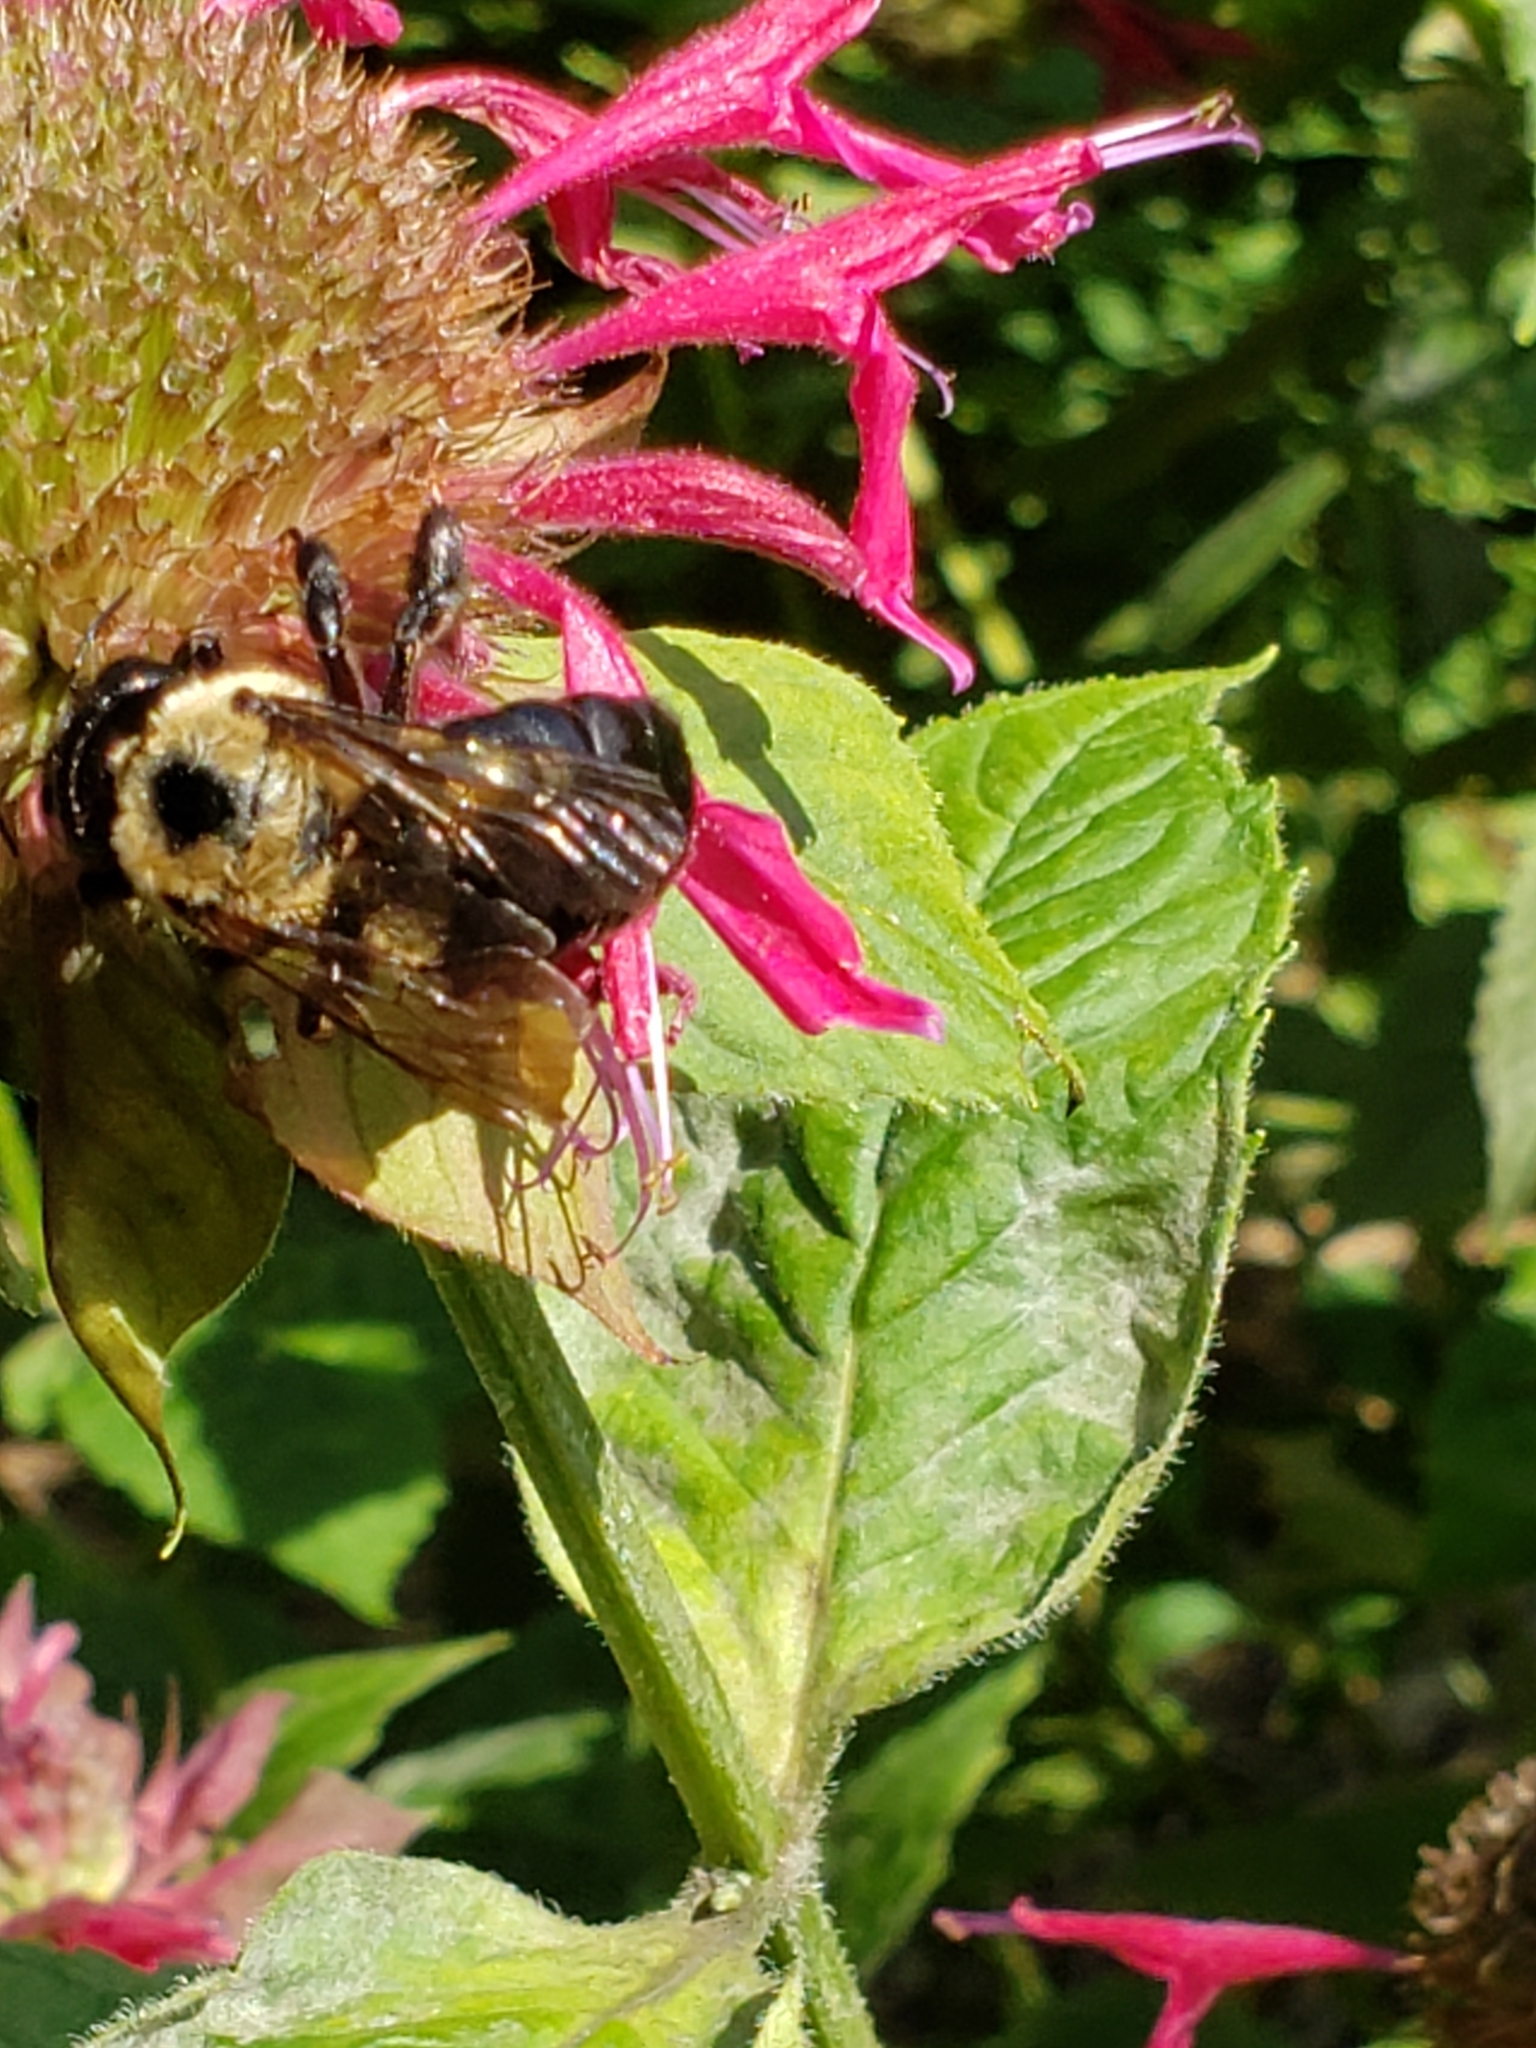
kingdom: Animalia
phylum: Arthropoda
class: Insecta
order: Hymenoptera
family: Apidae
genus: Xylocopa
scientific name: Xylocopa virginica
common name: Carpenter bee
